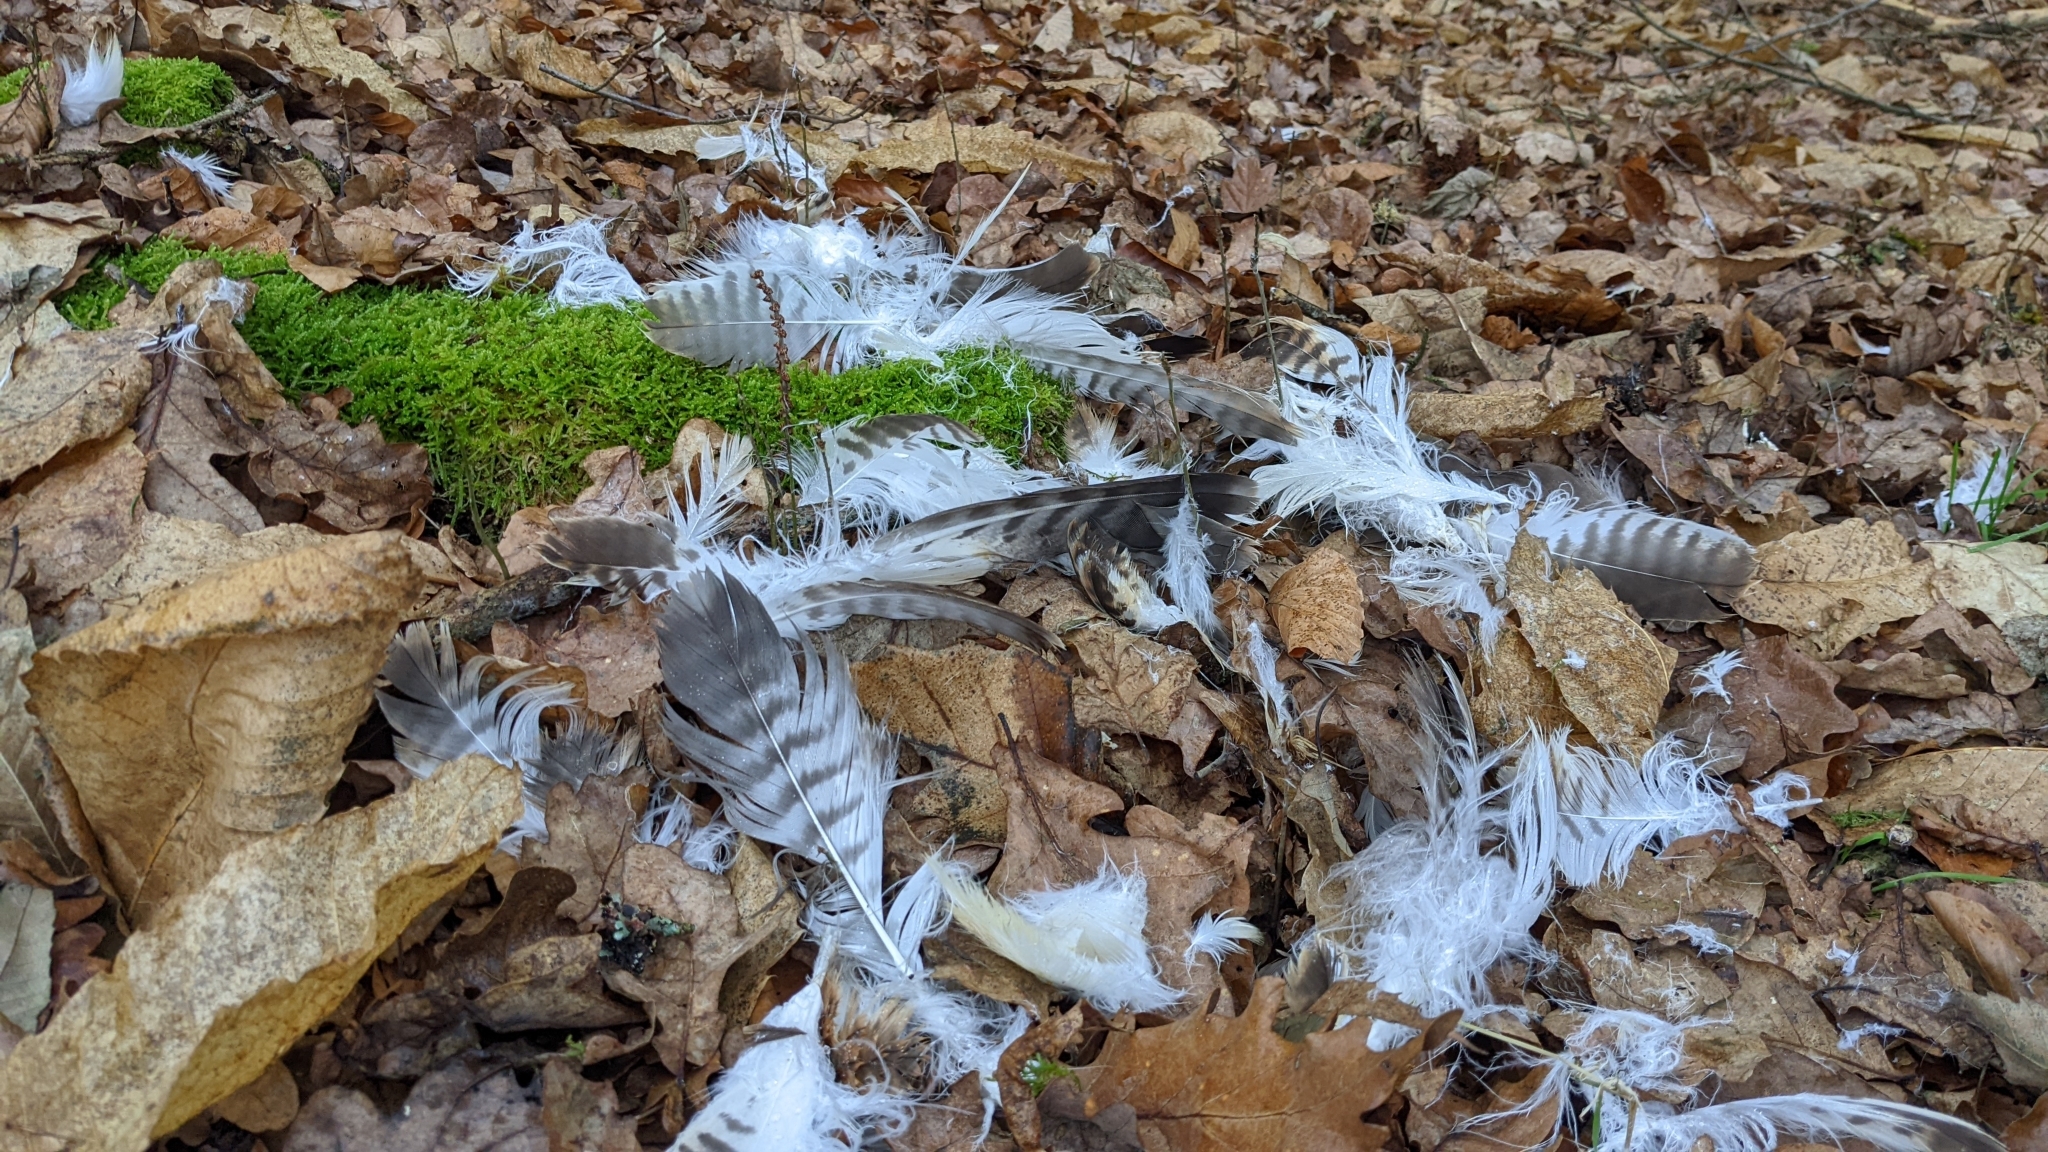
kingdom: Animalia
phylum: Chordata
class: Aves
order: Accipitriformes
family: Accipitridae
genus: Buteo
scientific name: Buteo buteo
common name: Common buzzard
